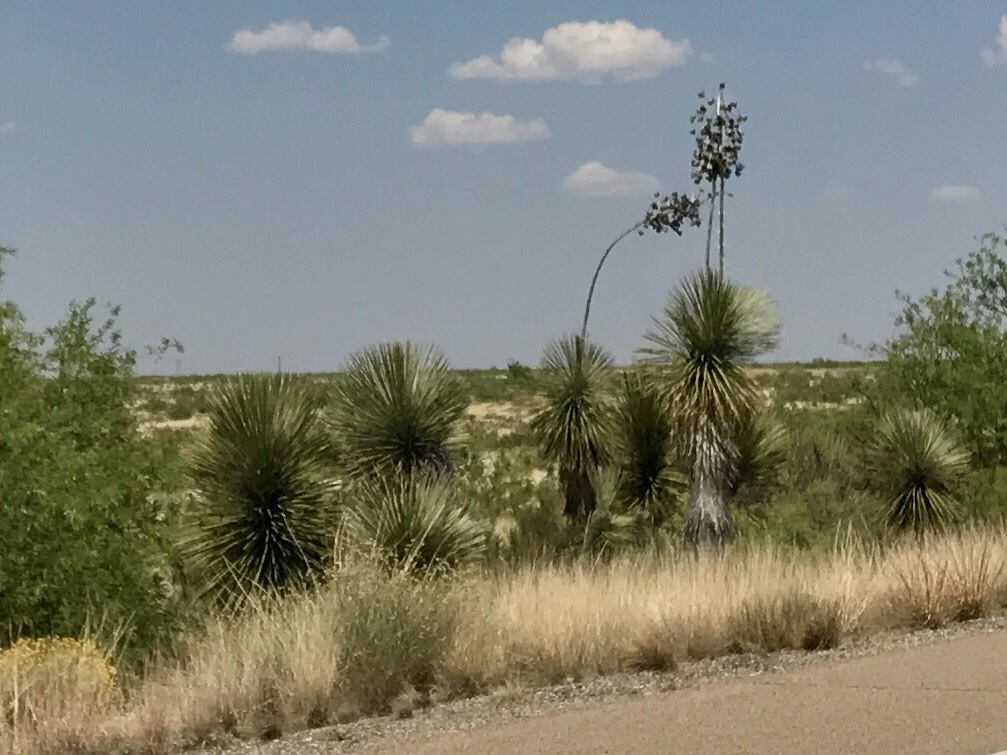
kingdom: Plantae
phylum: Tracheophyta
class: Liliopsida
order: Asparagales
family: Asparagaceae
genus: Yucca
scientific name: Yucca elata
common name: Palmella
